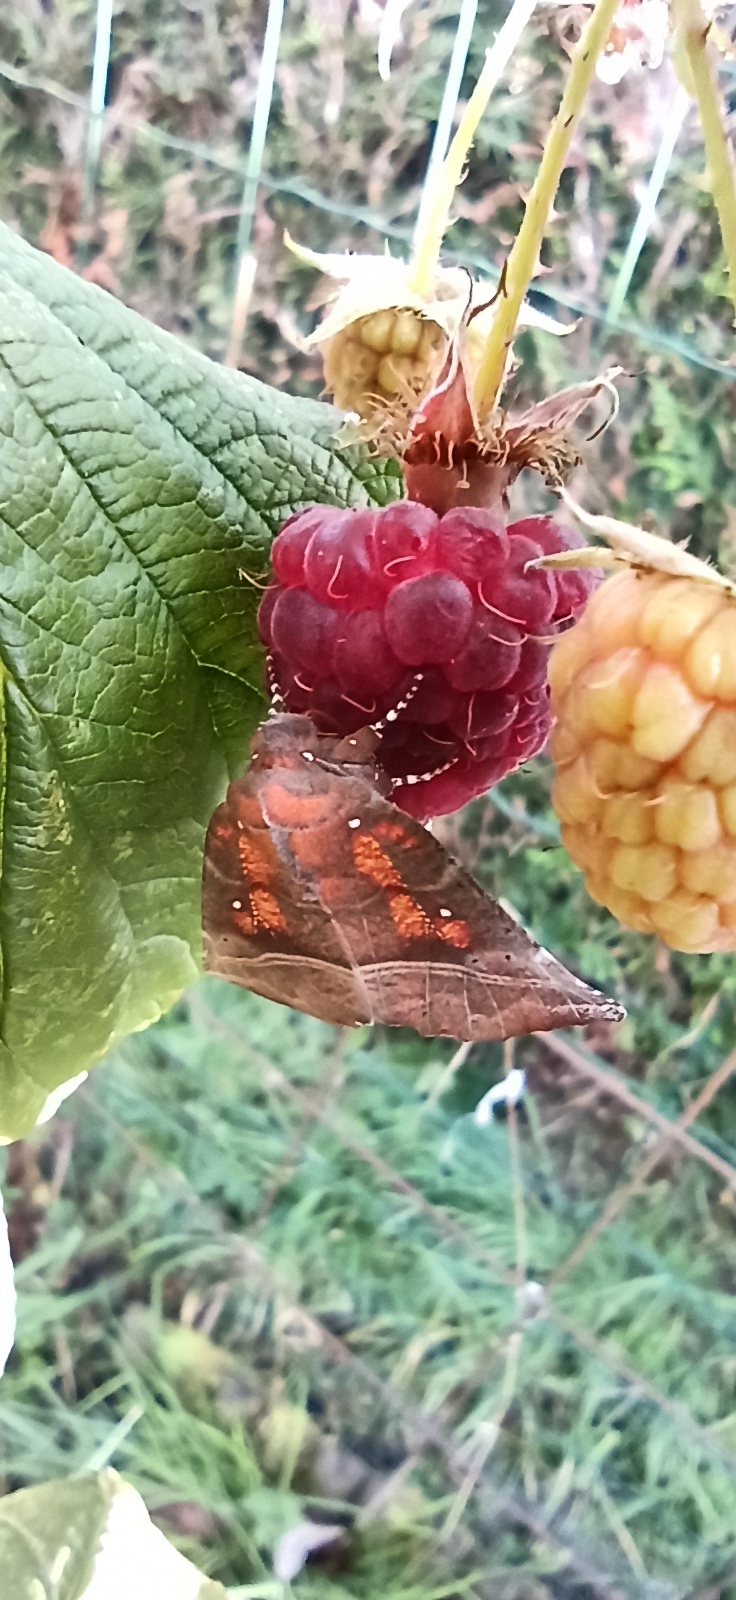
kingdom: Animalia
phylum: Arthropoda
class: Insecta
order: Lepidoptera
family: Erebidae
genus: Scoliopteryx
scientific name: Scoliopteryx libatrix
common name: Herald
